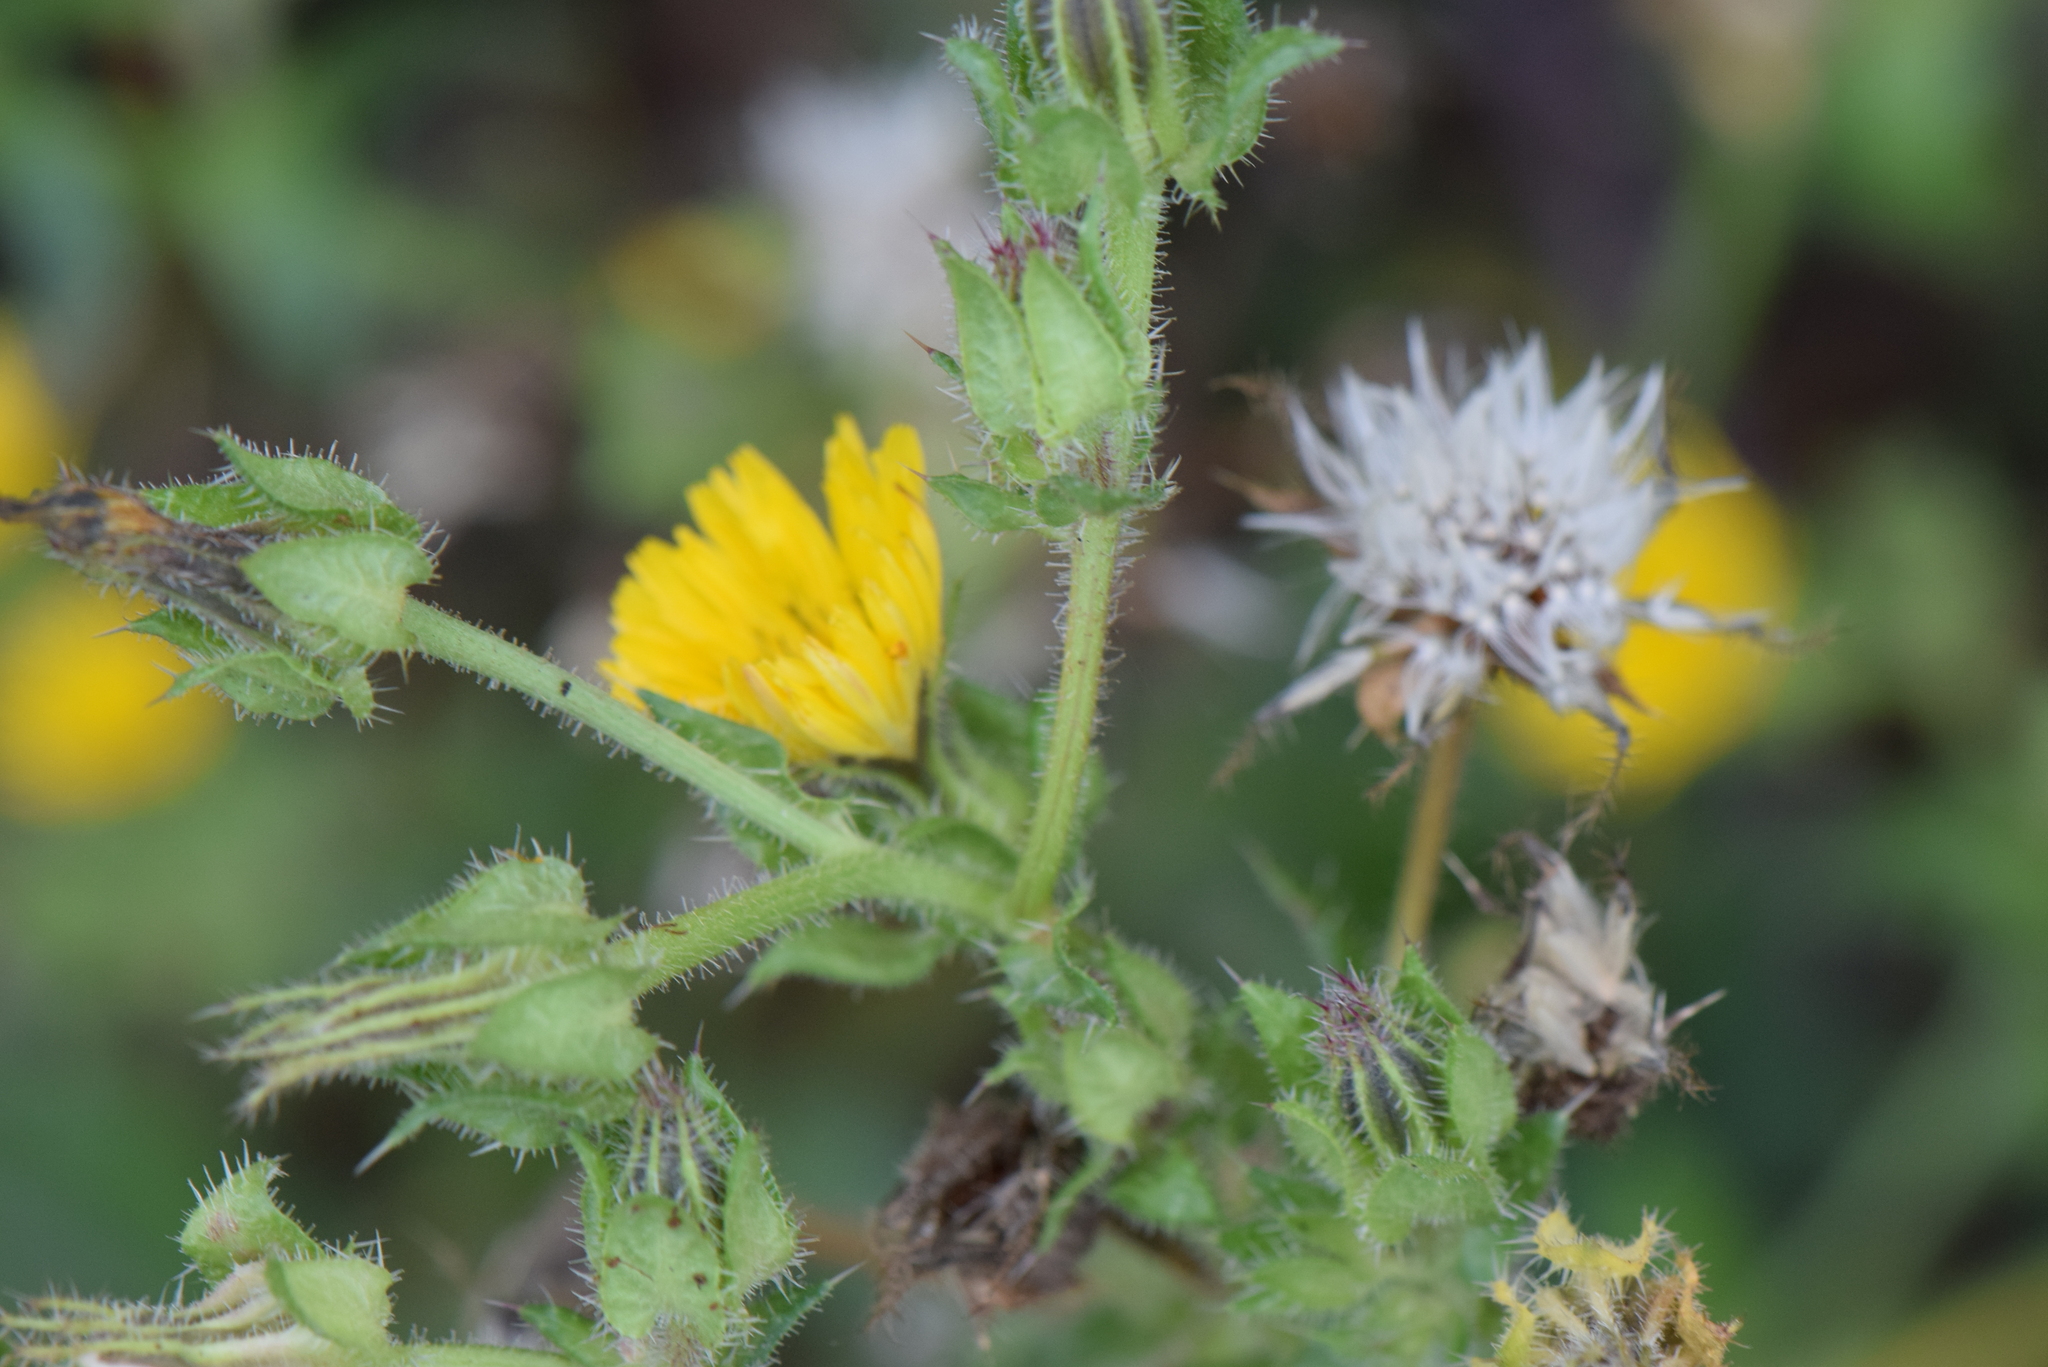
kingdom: Plantae
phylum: Tracheophyta
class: Magnoliopsida
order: Asterales
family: Asteraceae
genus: Helminthotheca
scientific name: Helminthotheca echioides
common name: Ox-tongue
